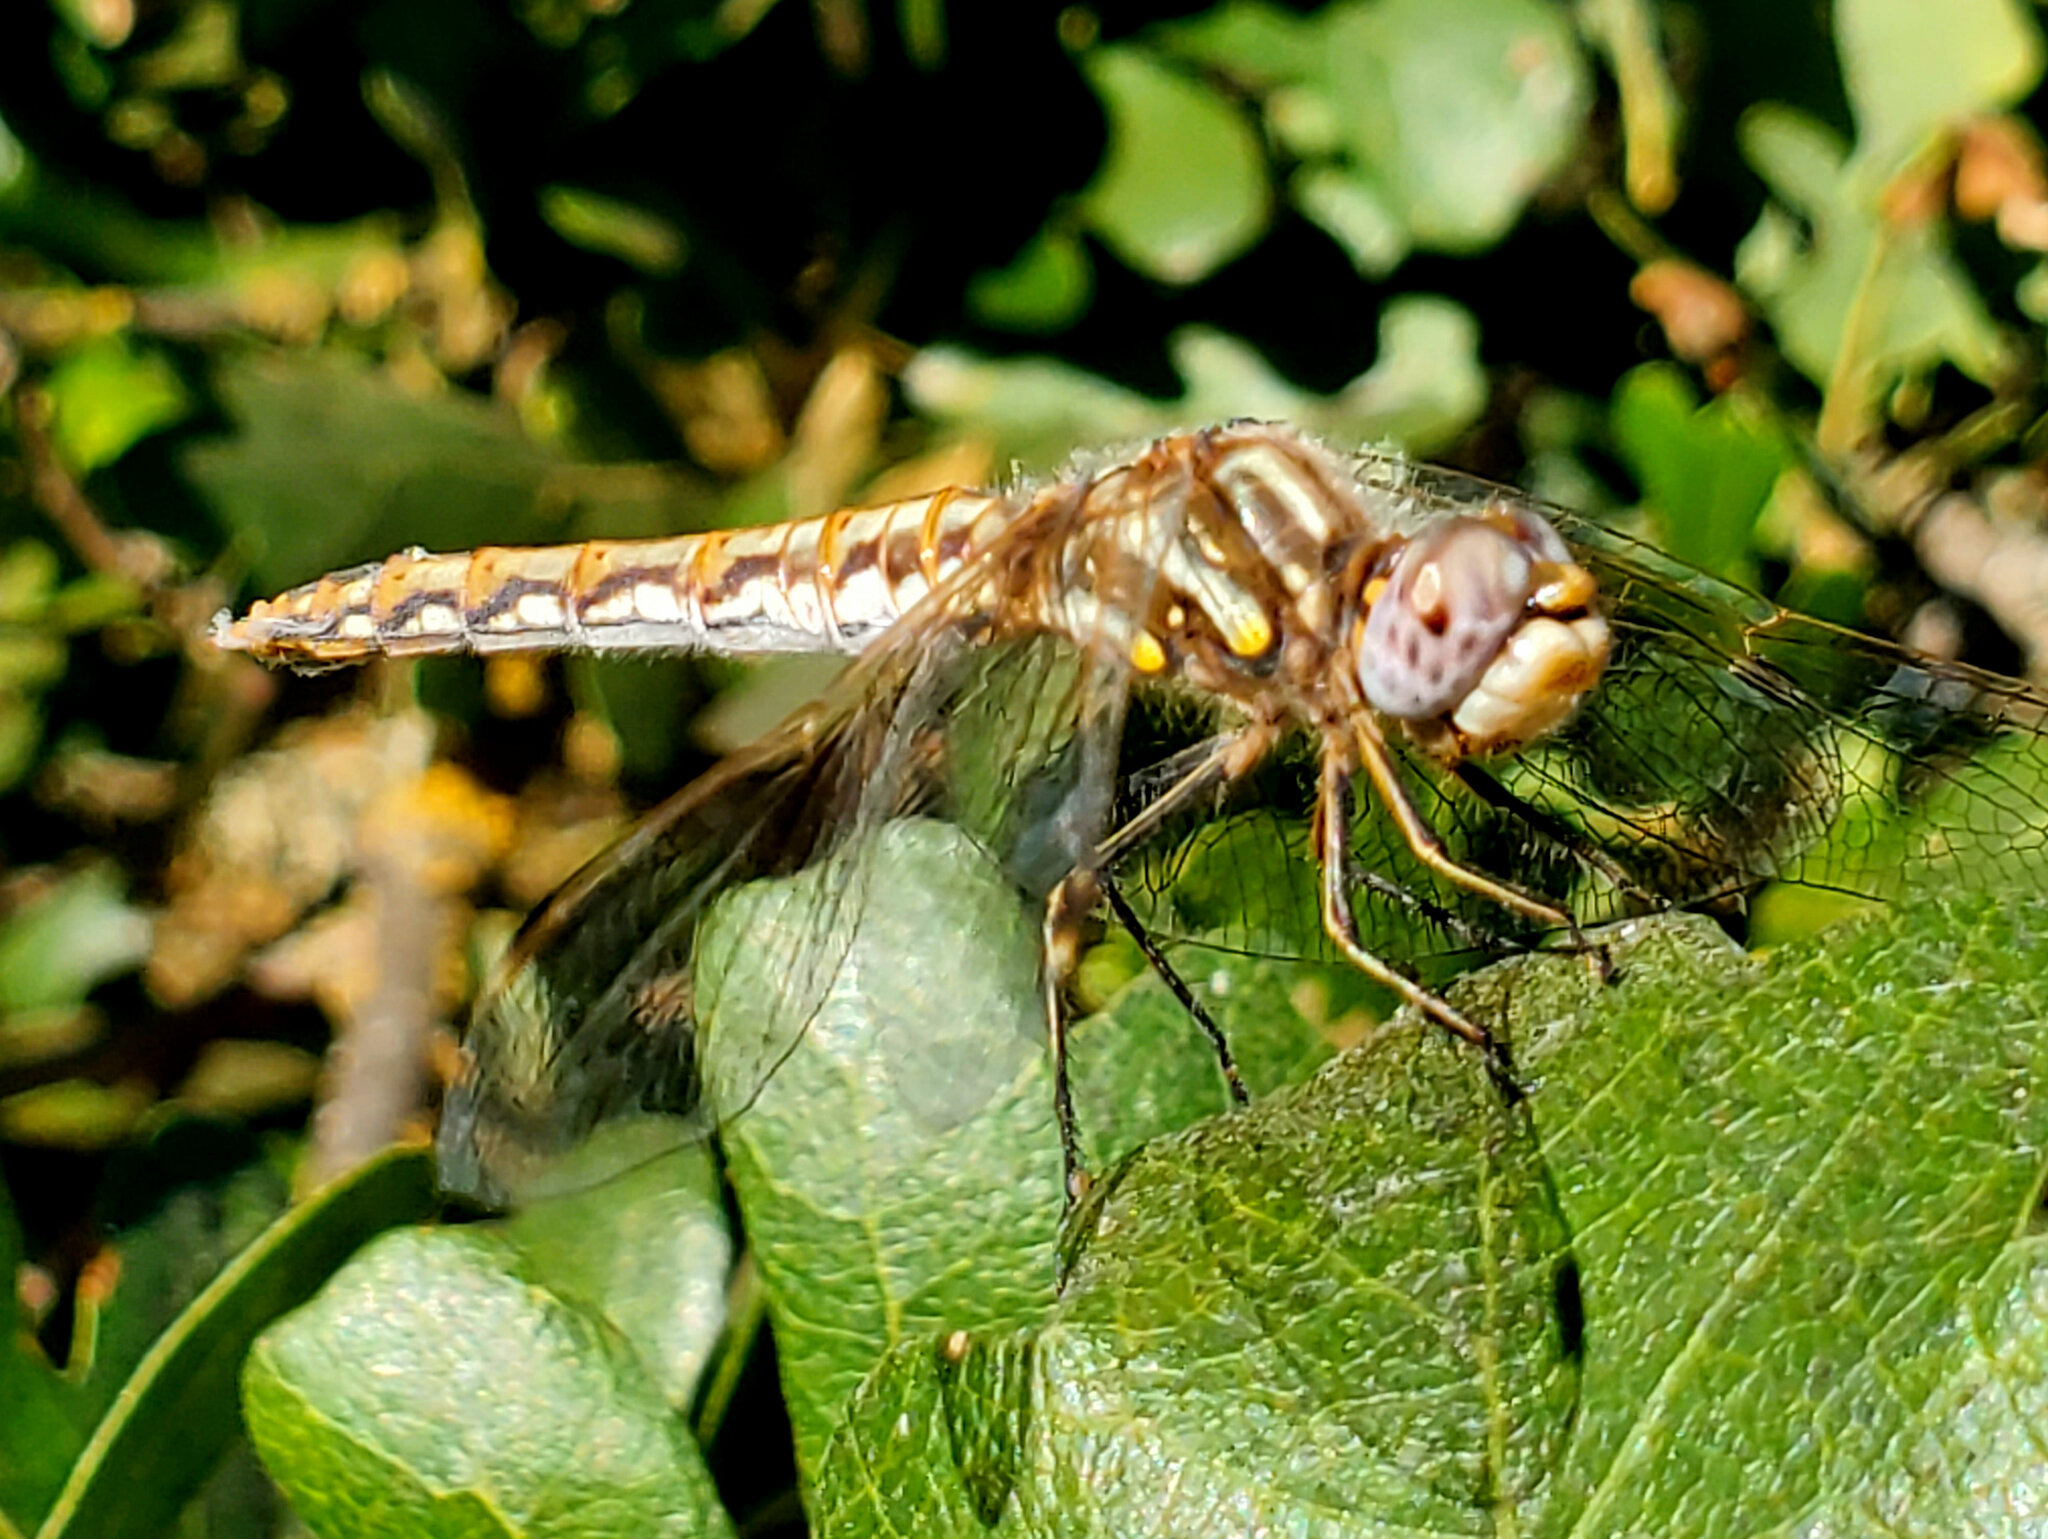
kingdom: Animalia
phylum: Arthropoda
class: Insecta
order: Odonata
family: Libellulidae
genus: Sympetrum
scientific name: Sympetrum corruptum
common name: Variegated meadowhawk
